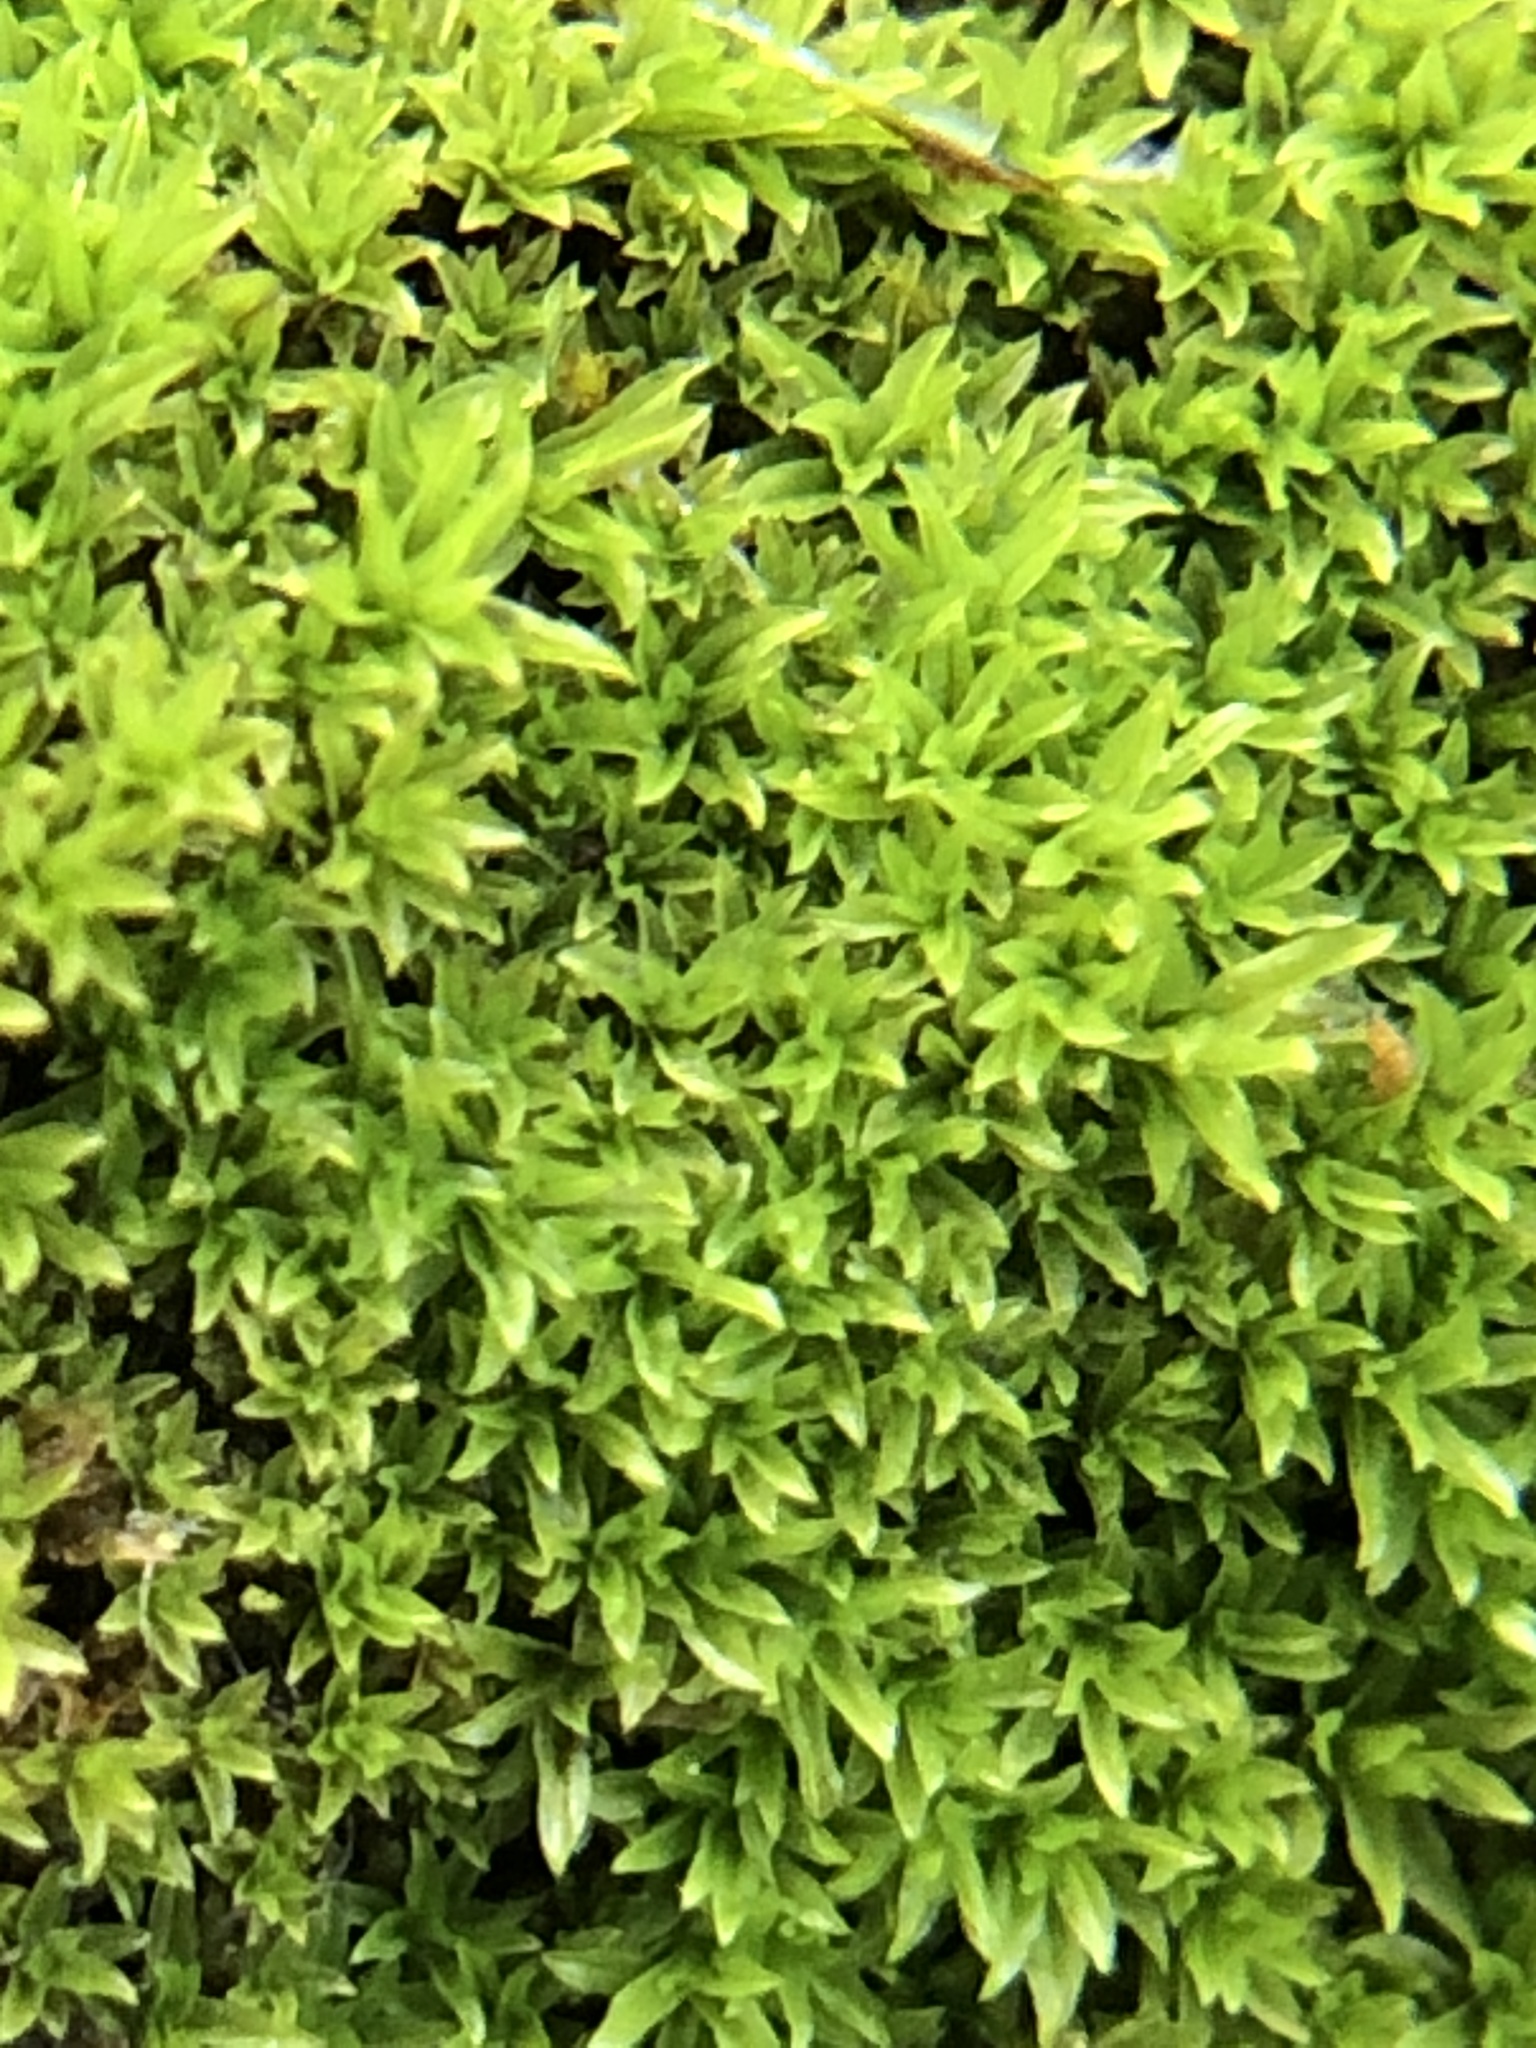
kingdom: Plantae
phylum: Bryophyta
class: Bryopsida
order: Pottiales
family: Pottiaceae
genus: Streblotrichum
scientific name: Streblotrichum convolutum
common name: Lesser bird's-claw beard-moss
